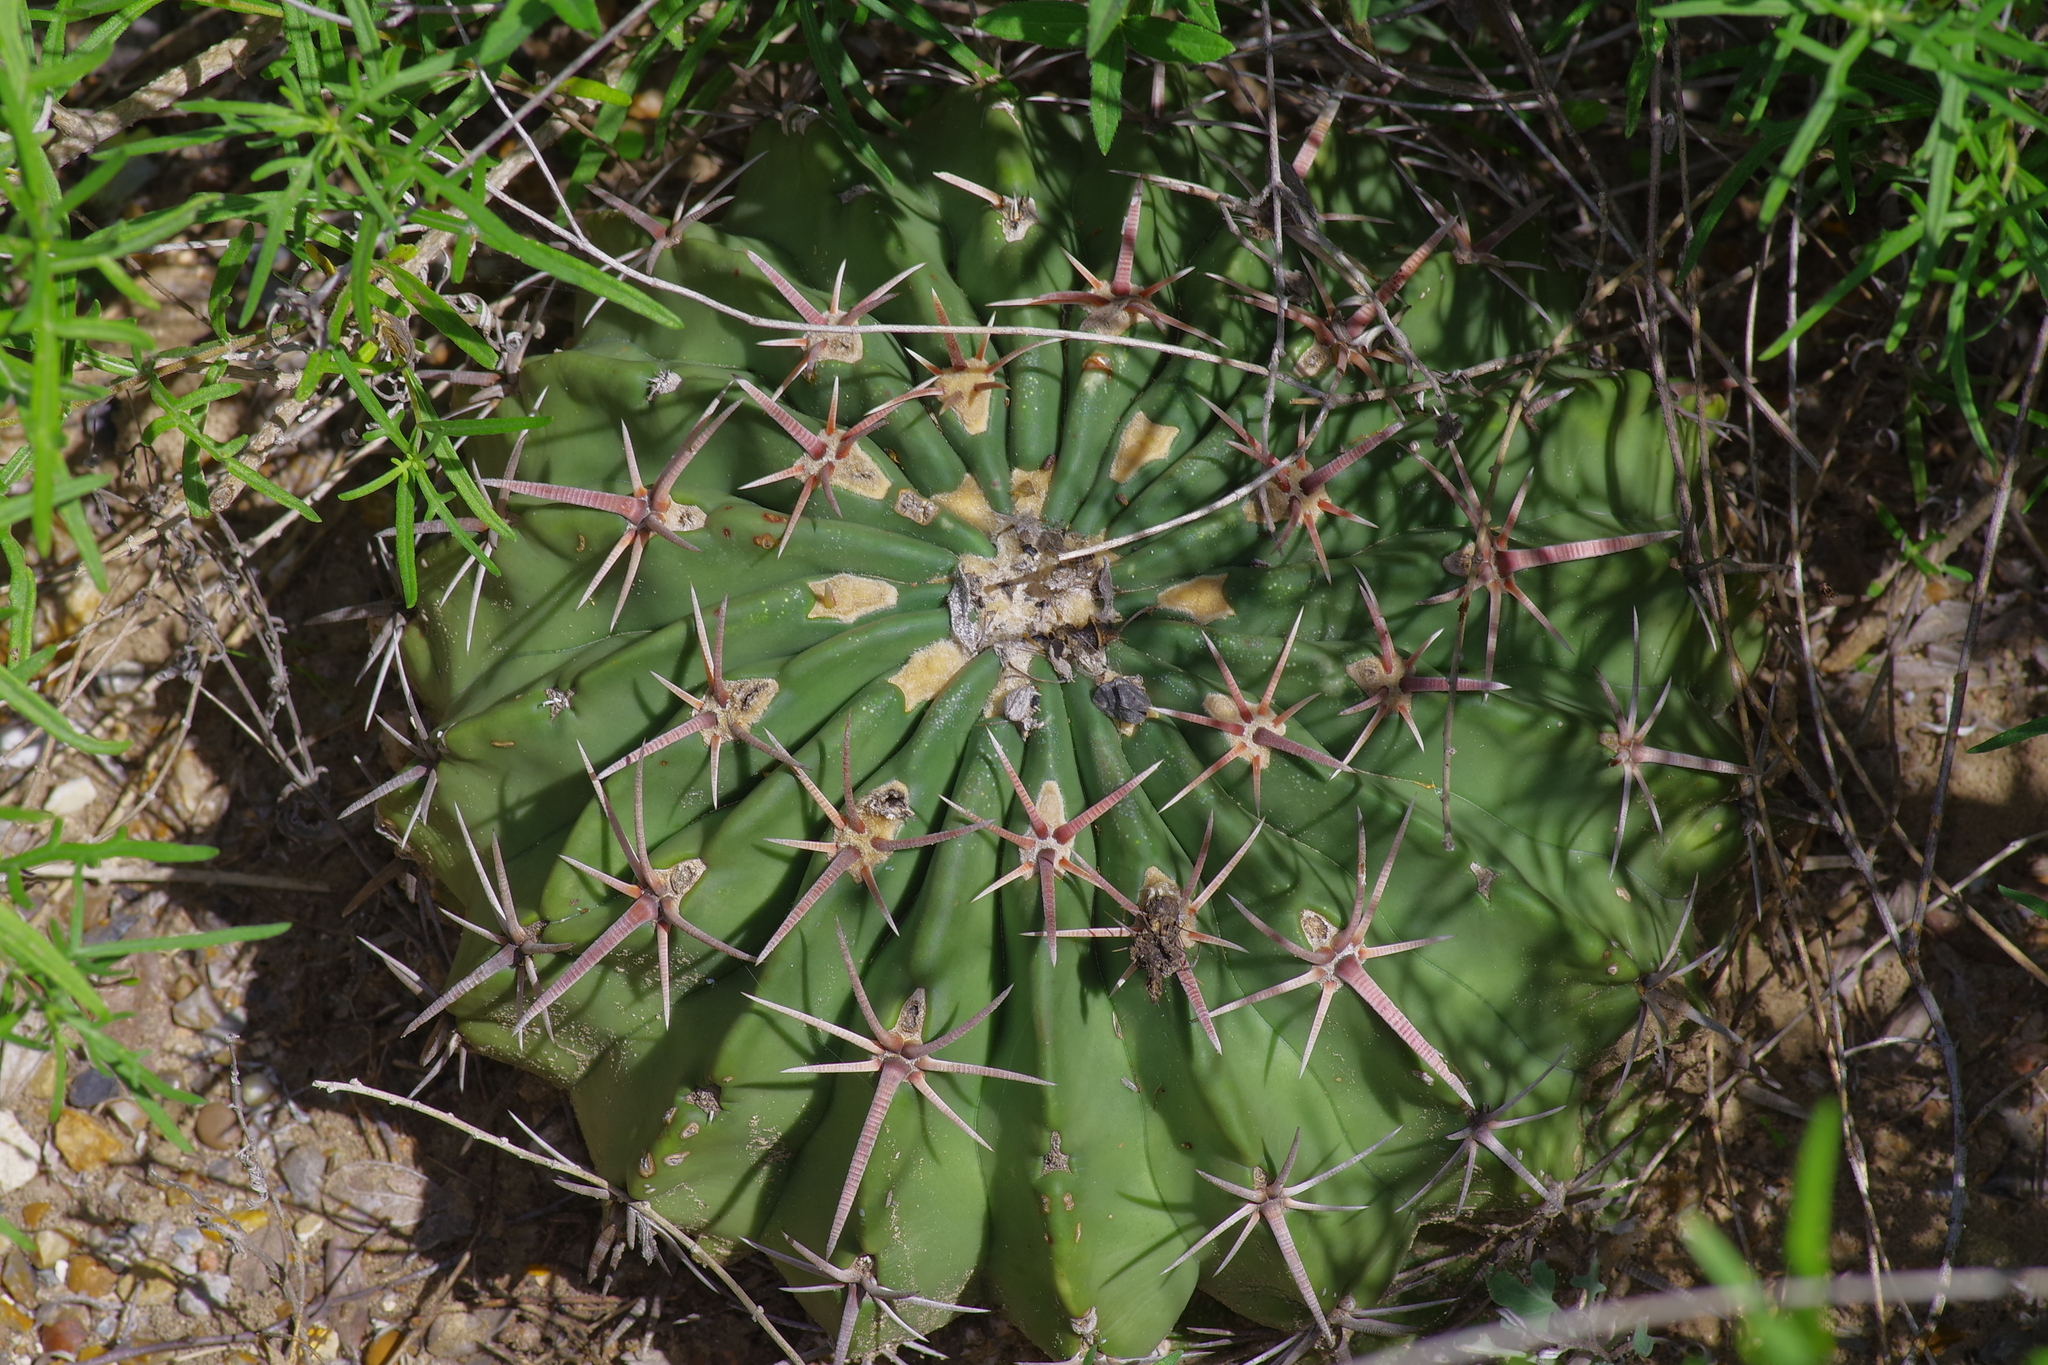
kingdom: Plantae
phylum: Tracheophyta
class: Magnoliopsida
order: Caryophyllales
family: Cactaceae
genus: Echinocactus
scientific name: Echinocactus texensis
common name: Devil's pincushion
